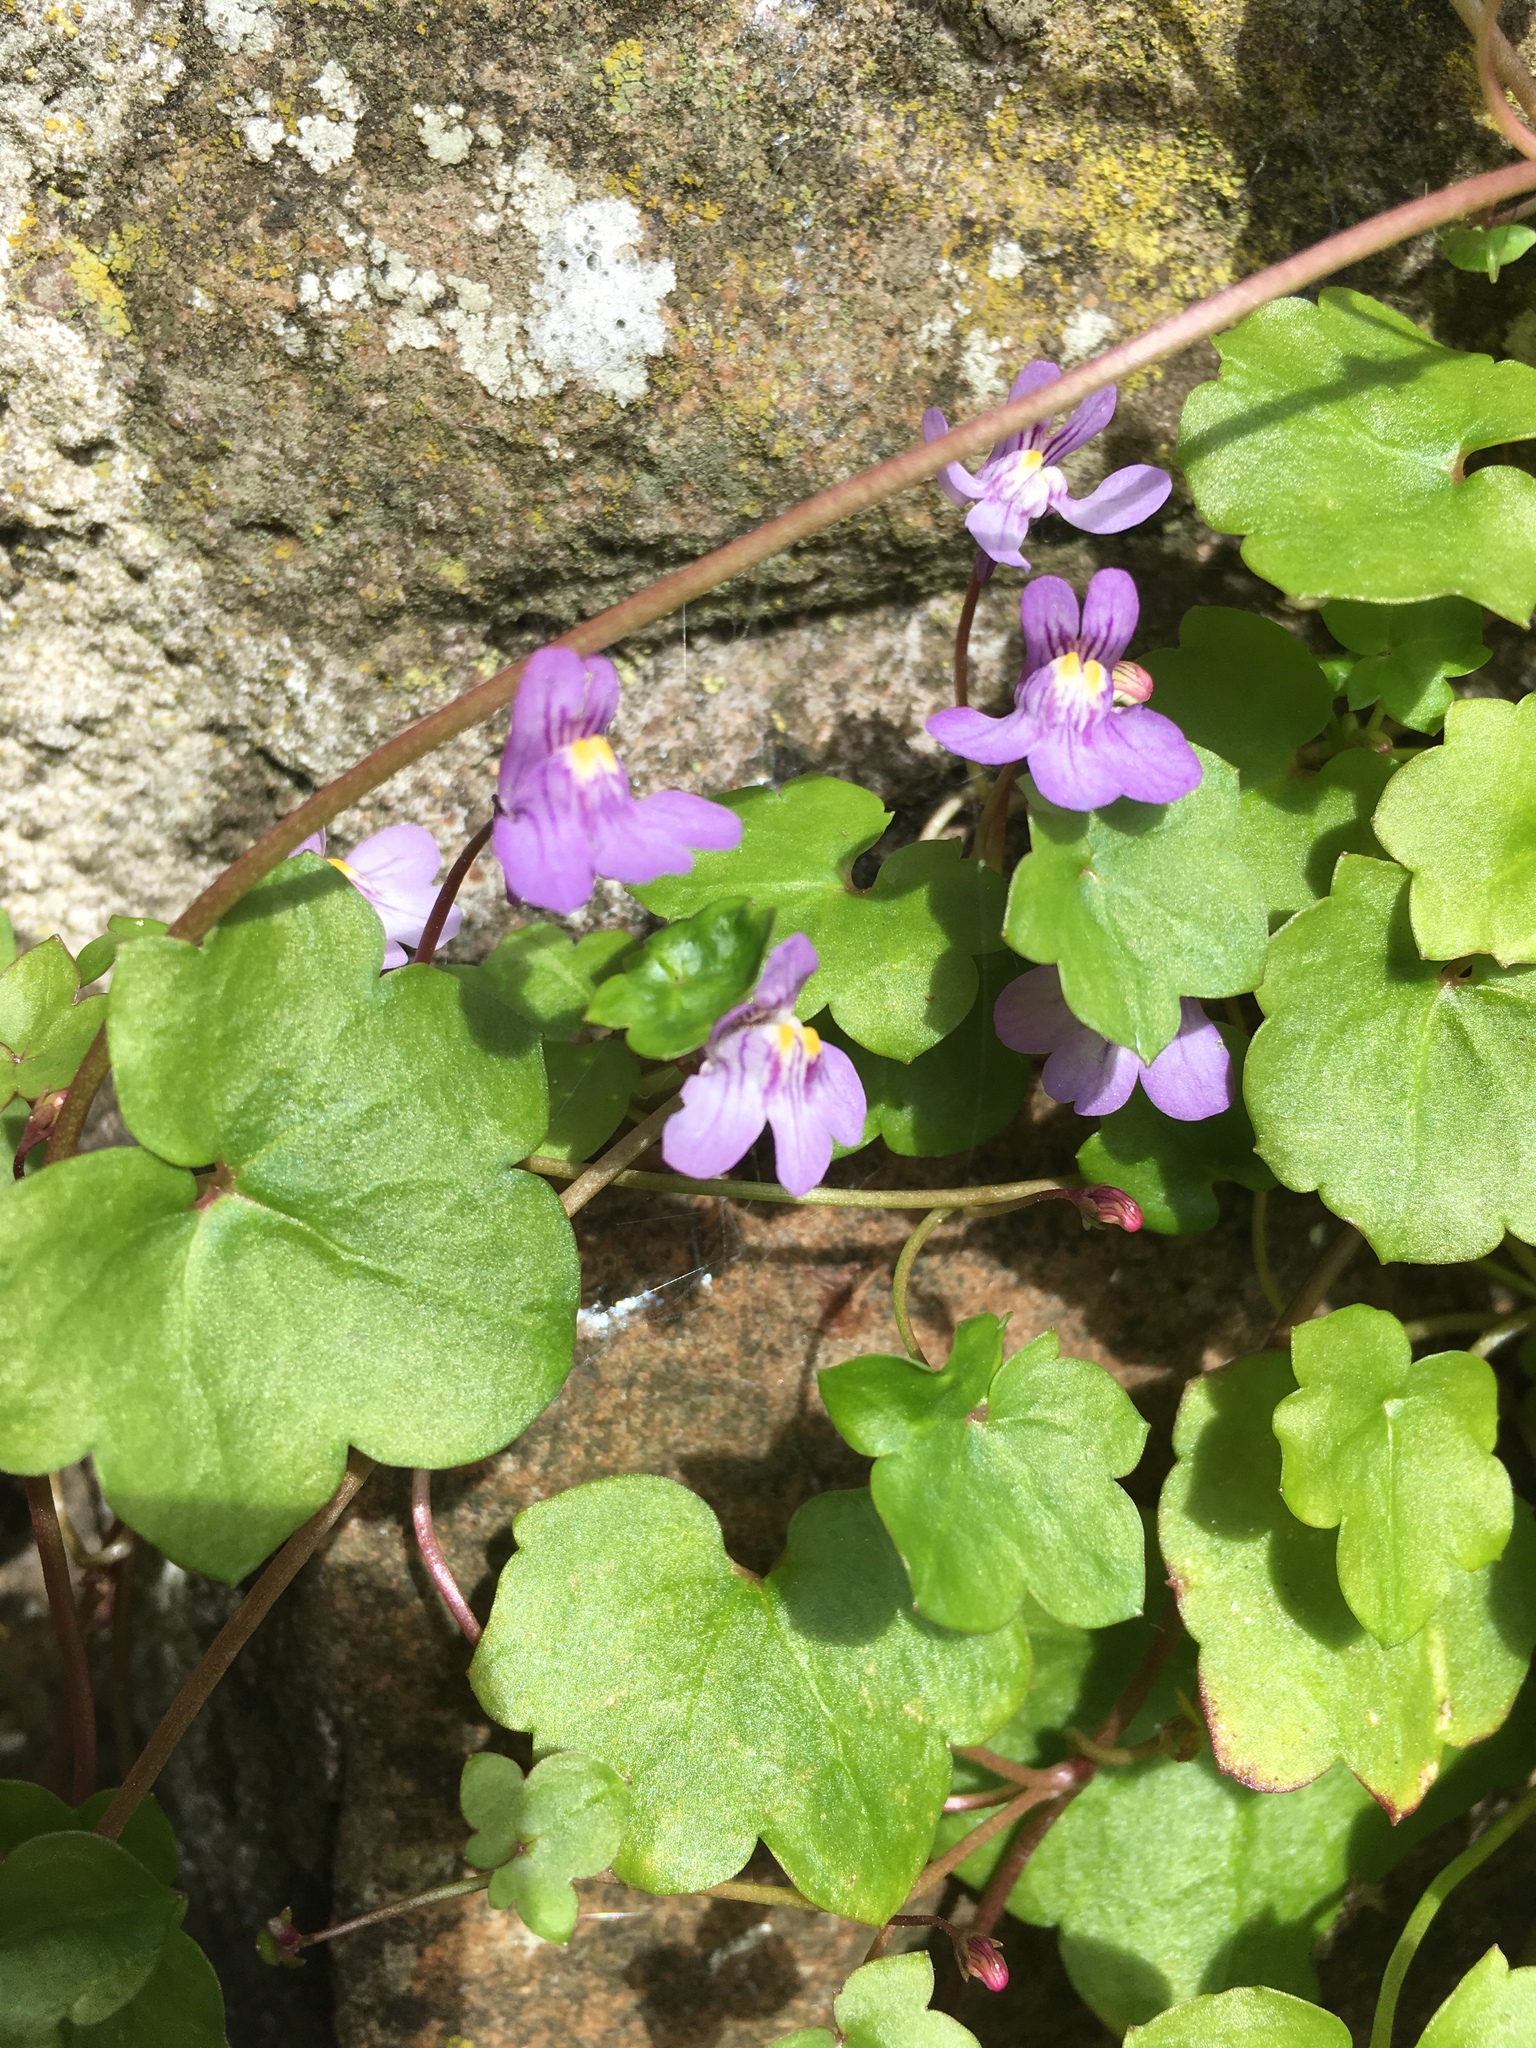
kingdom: Plantae
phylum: Tracheophyta
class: Magnoliopsida
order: Lamiales
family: Plantaginaceae
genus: Cymbalaria
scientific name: Cymbalaria muralis
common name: Ivy-leaved toadflax
